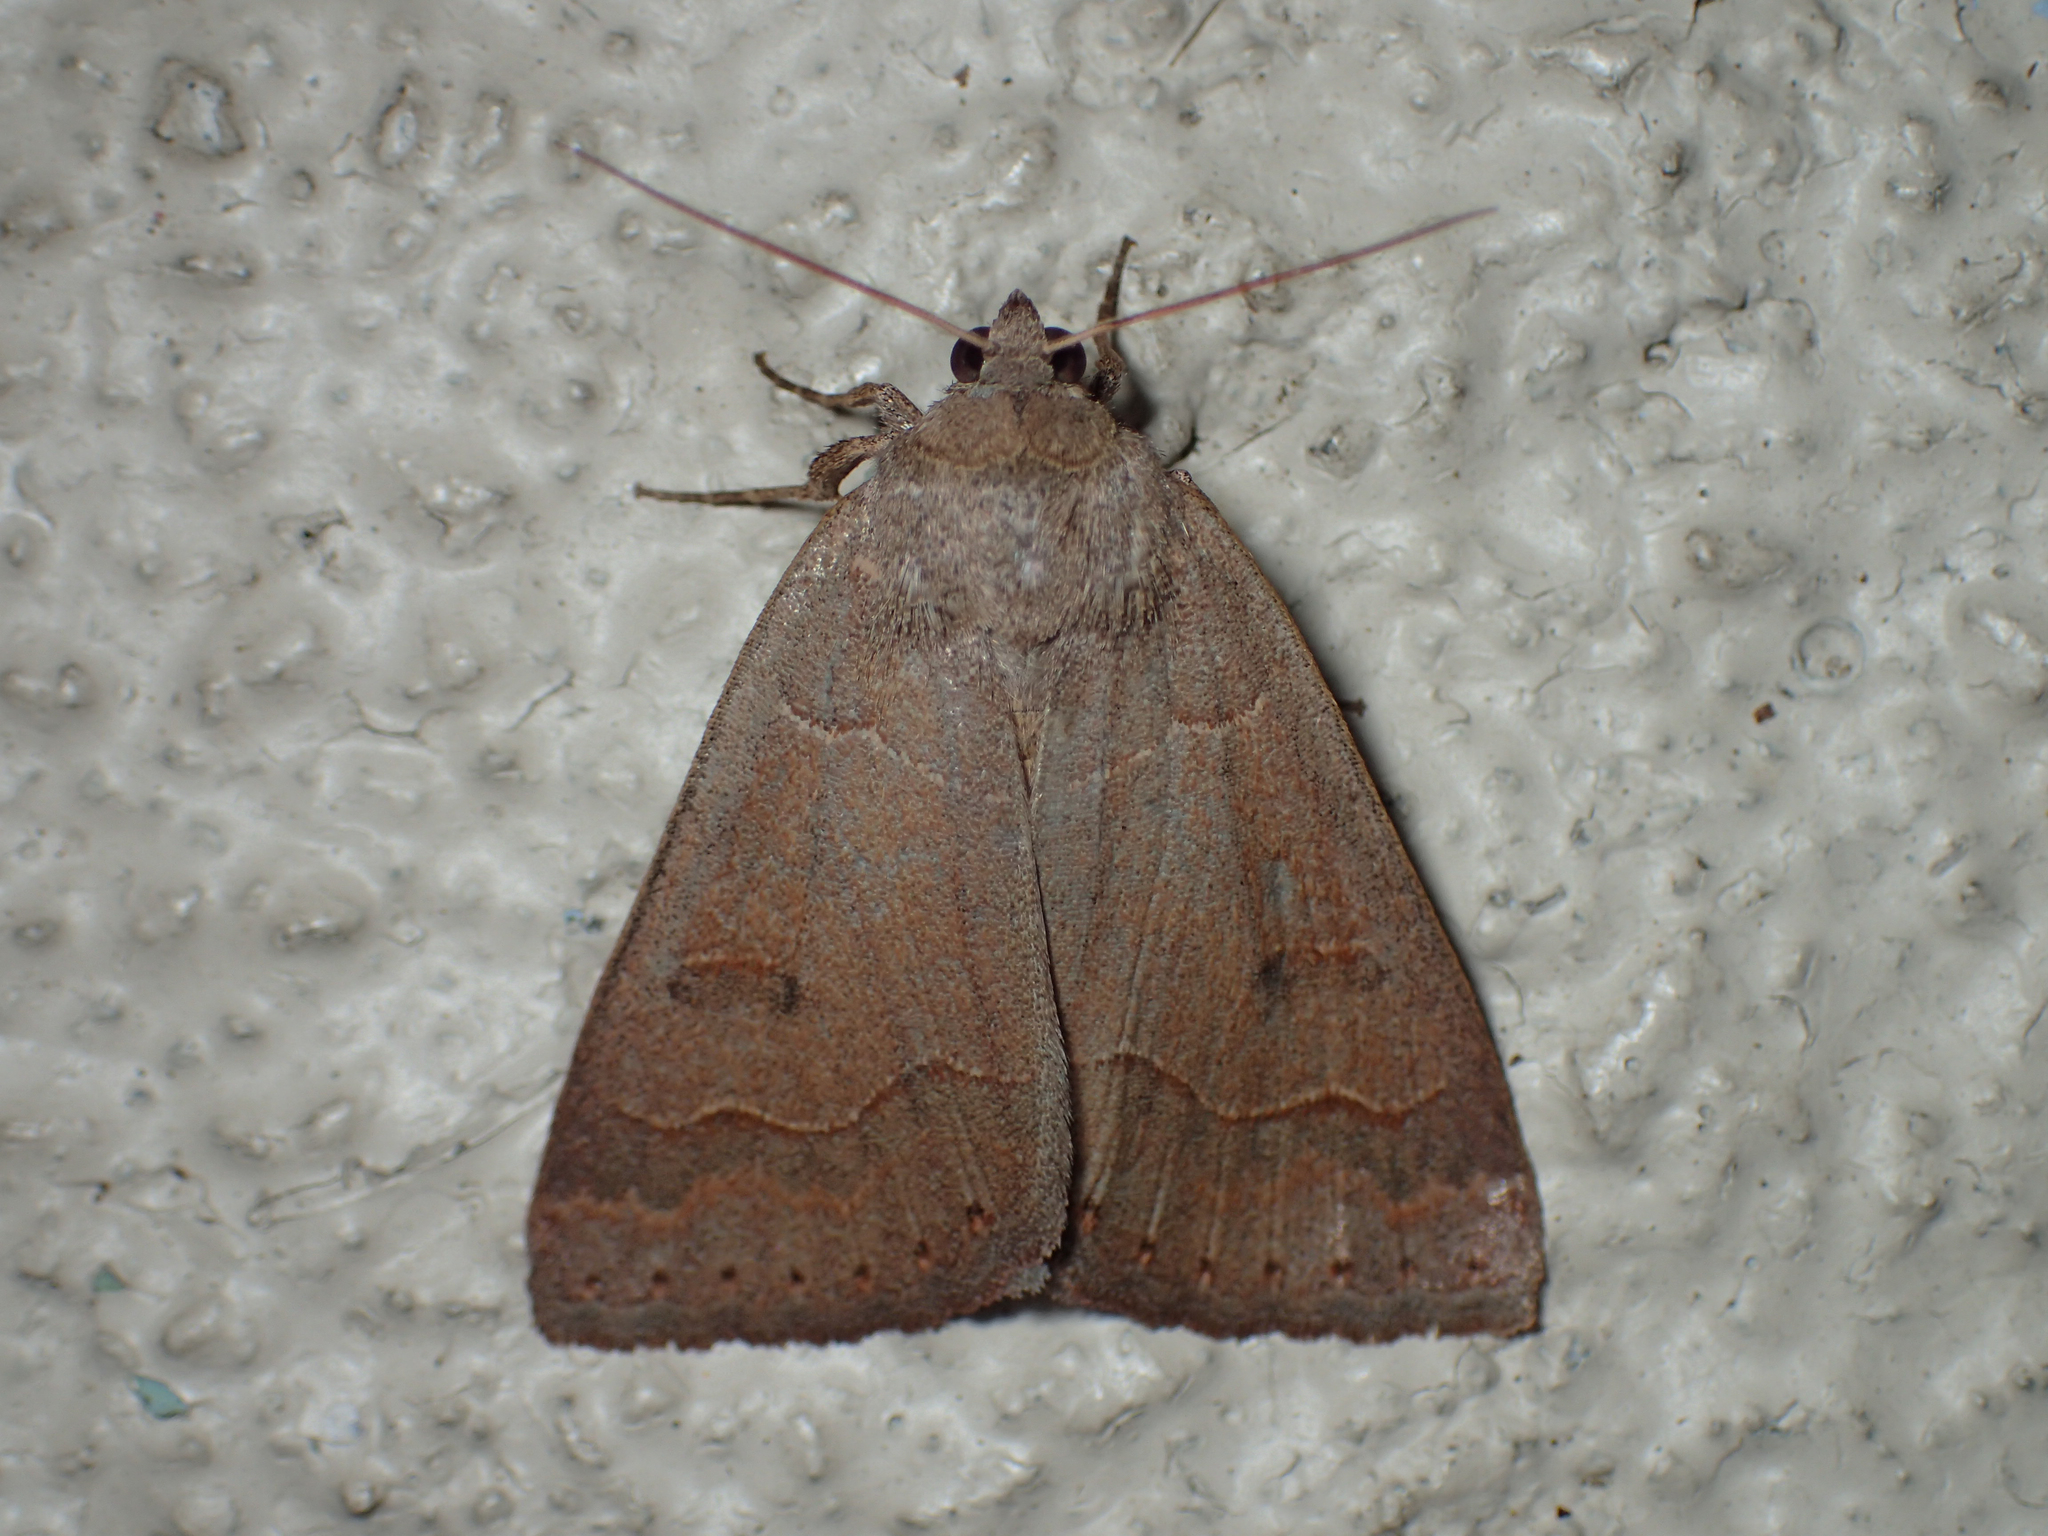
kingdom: Animalia
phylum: Arthropoda
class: Insecta
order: Lepidoptera
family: Erebidae
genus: Phoberia
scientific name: Phoberia atomaris
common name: Common oak moth
